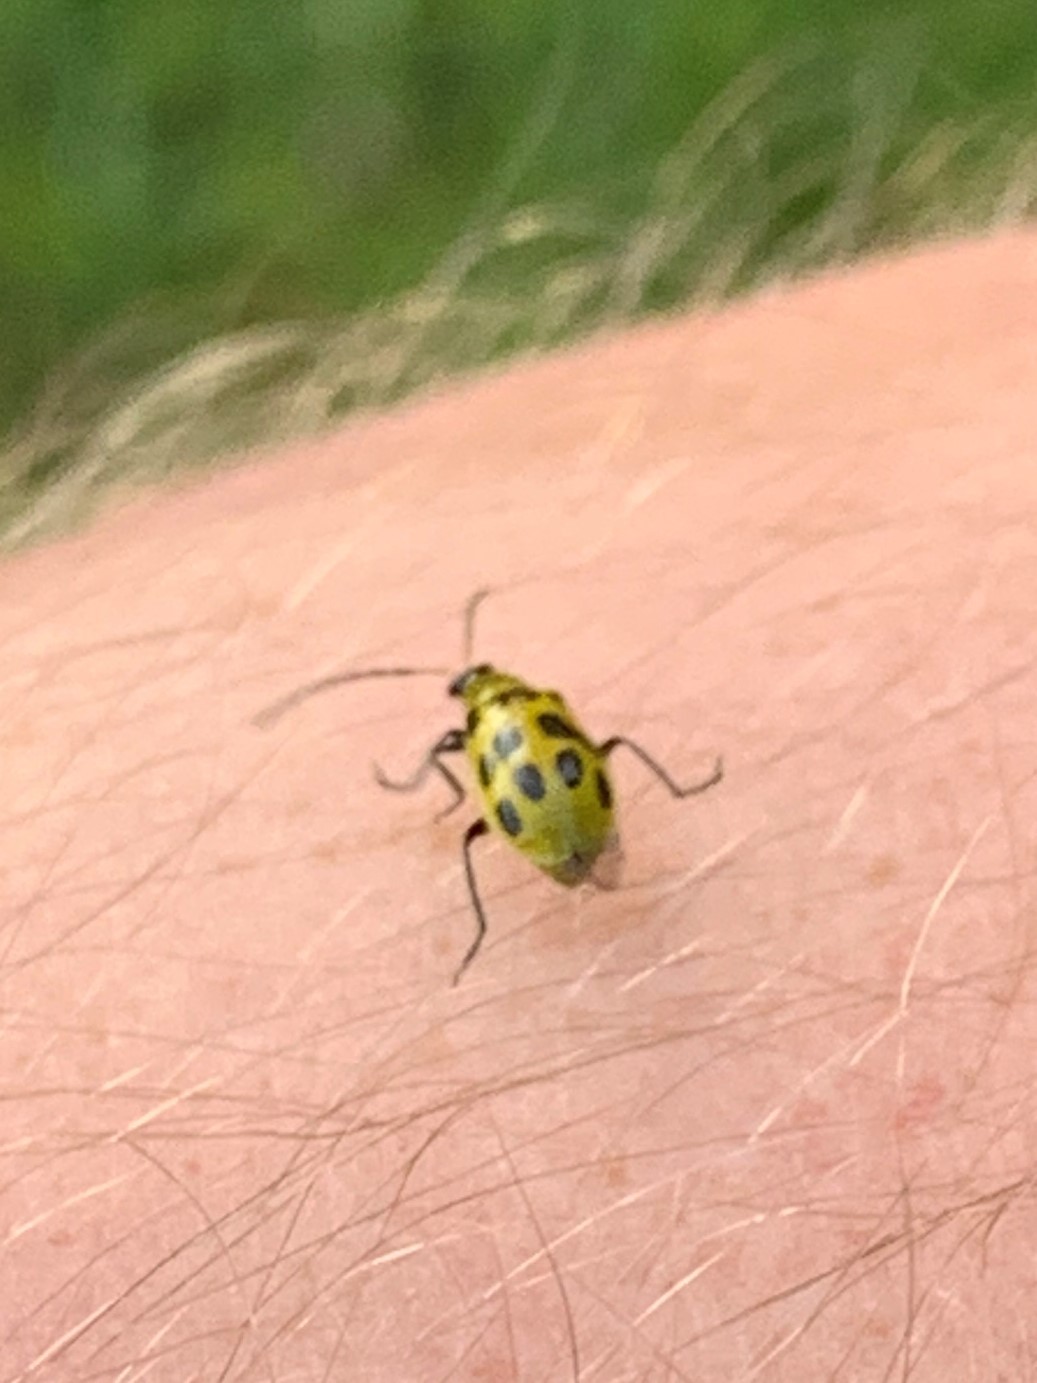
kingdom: Animalia
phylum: Arthropoda
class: Insecta
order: Coleoptera
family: Chrysomelidae
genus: Diabrotica
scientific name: Diabrotica undecimpunctata
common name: Spotted cucumber beetle
